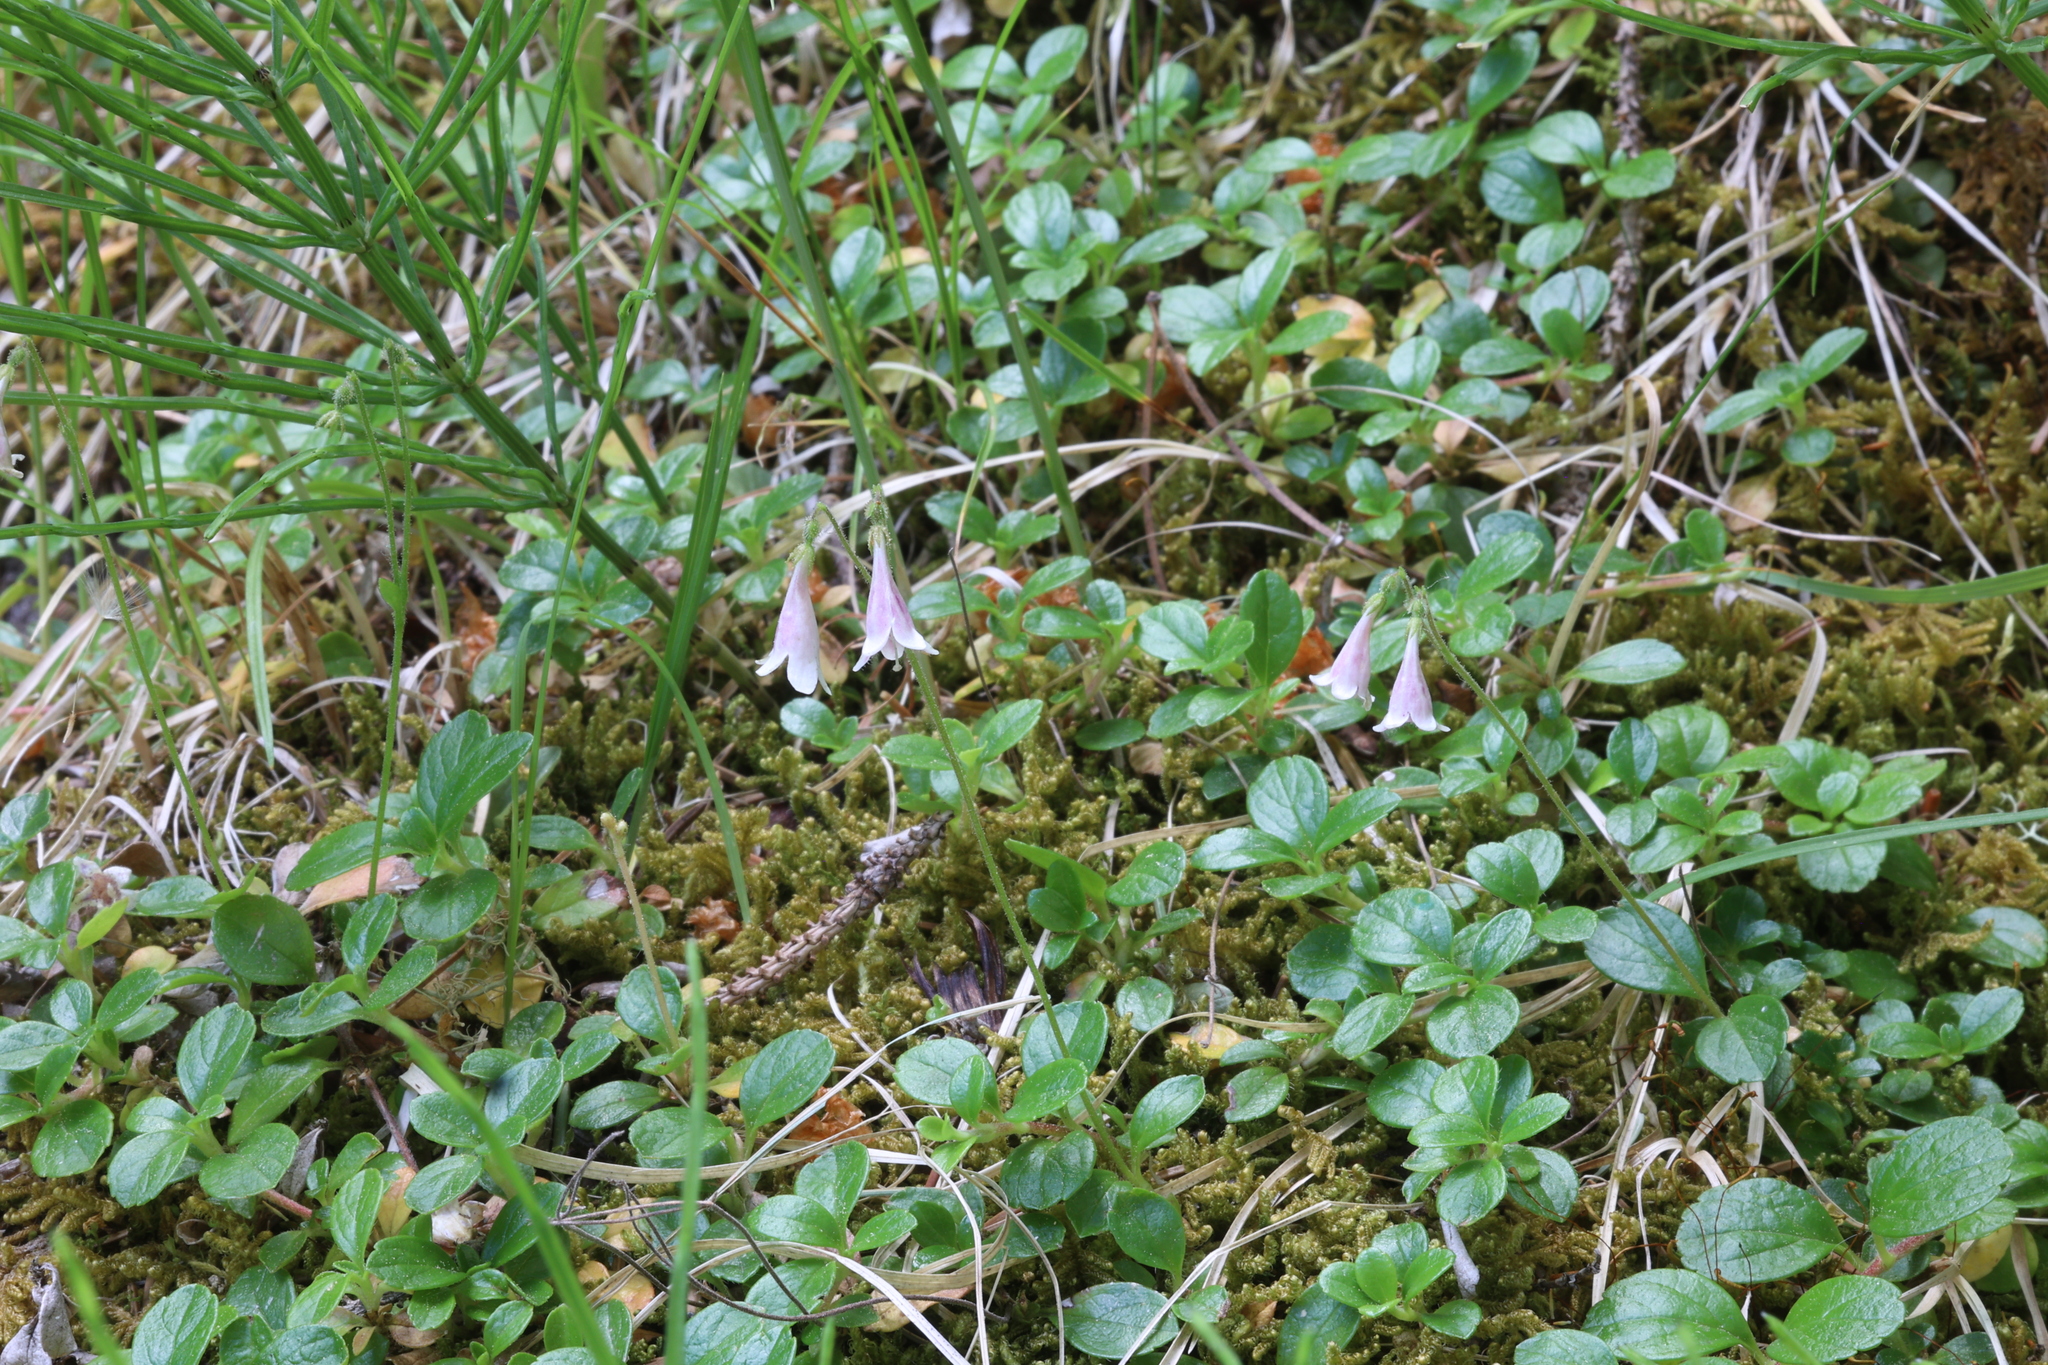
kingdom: Plantae
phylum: Tracheophyta
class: Magnoliopsida
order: Dipsacales
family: Caprifoliaceae
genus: Linnaea
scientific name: Linnaea borealis
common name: Twinflower
